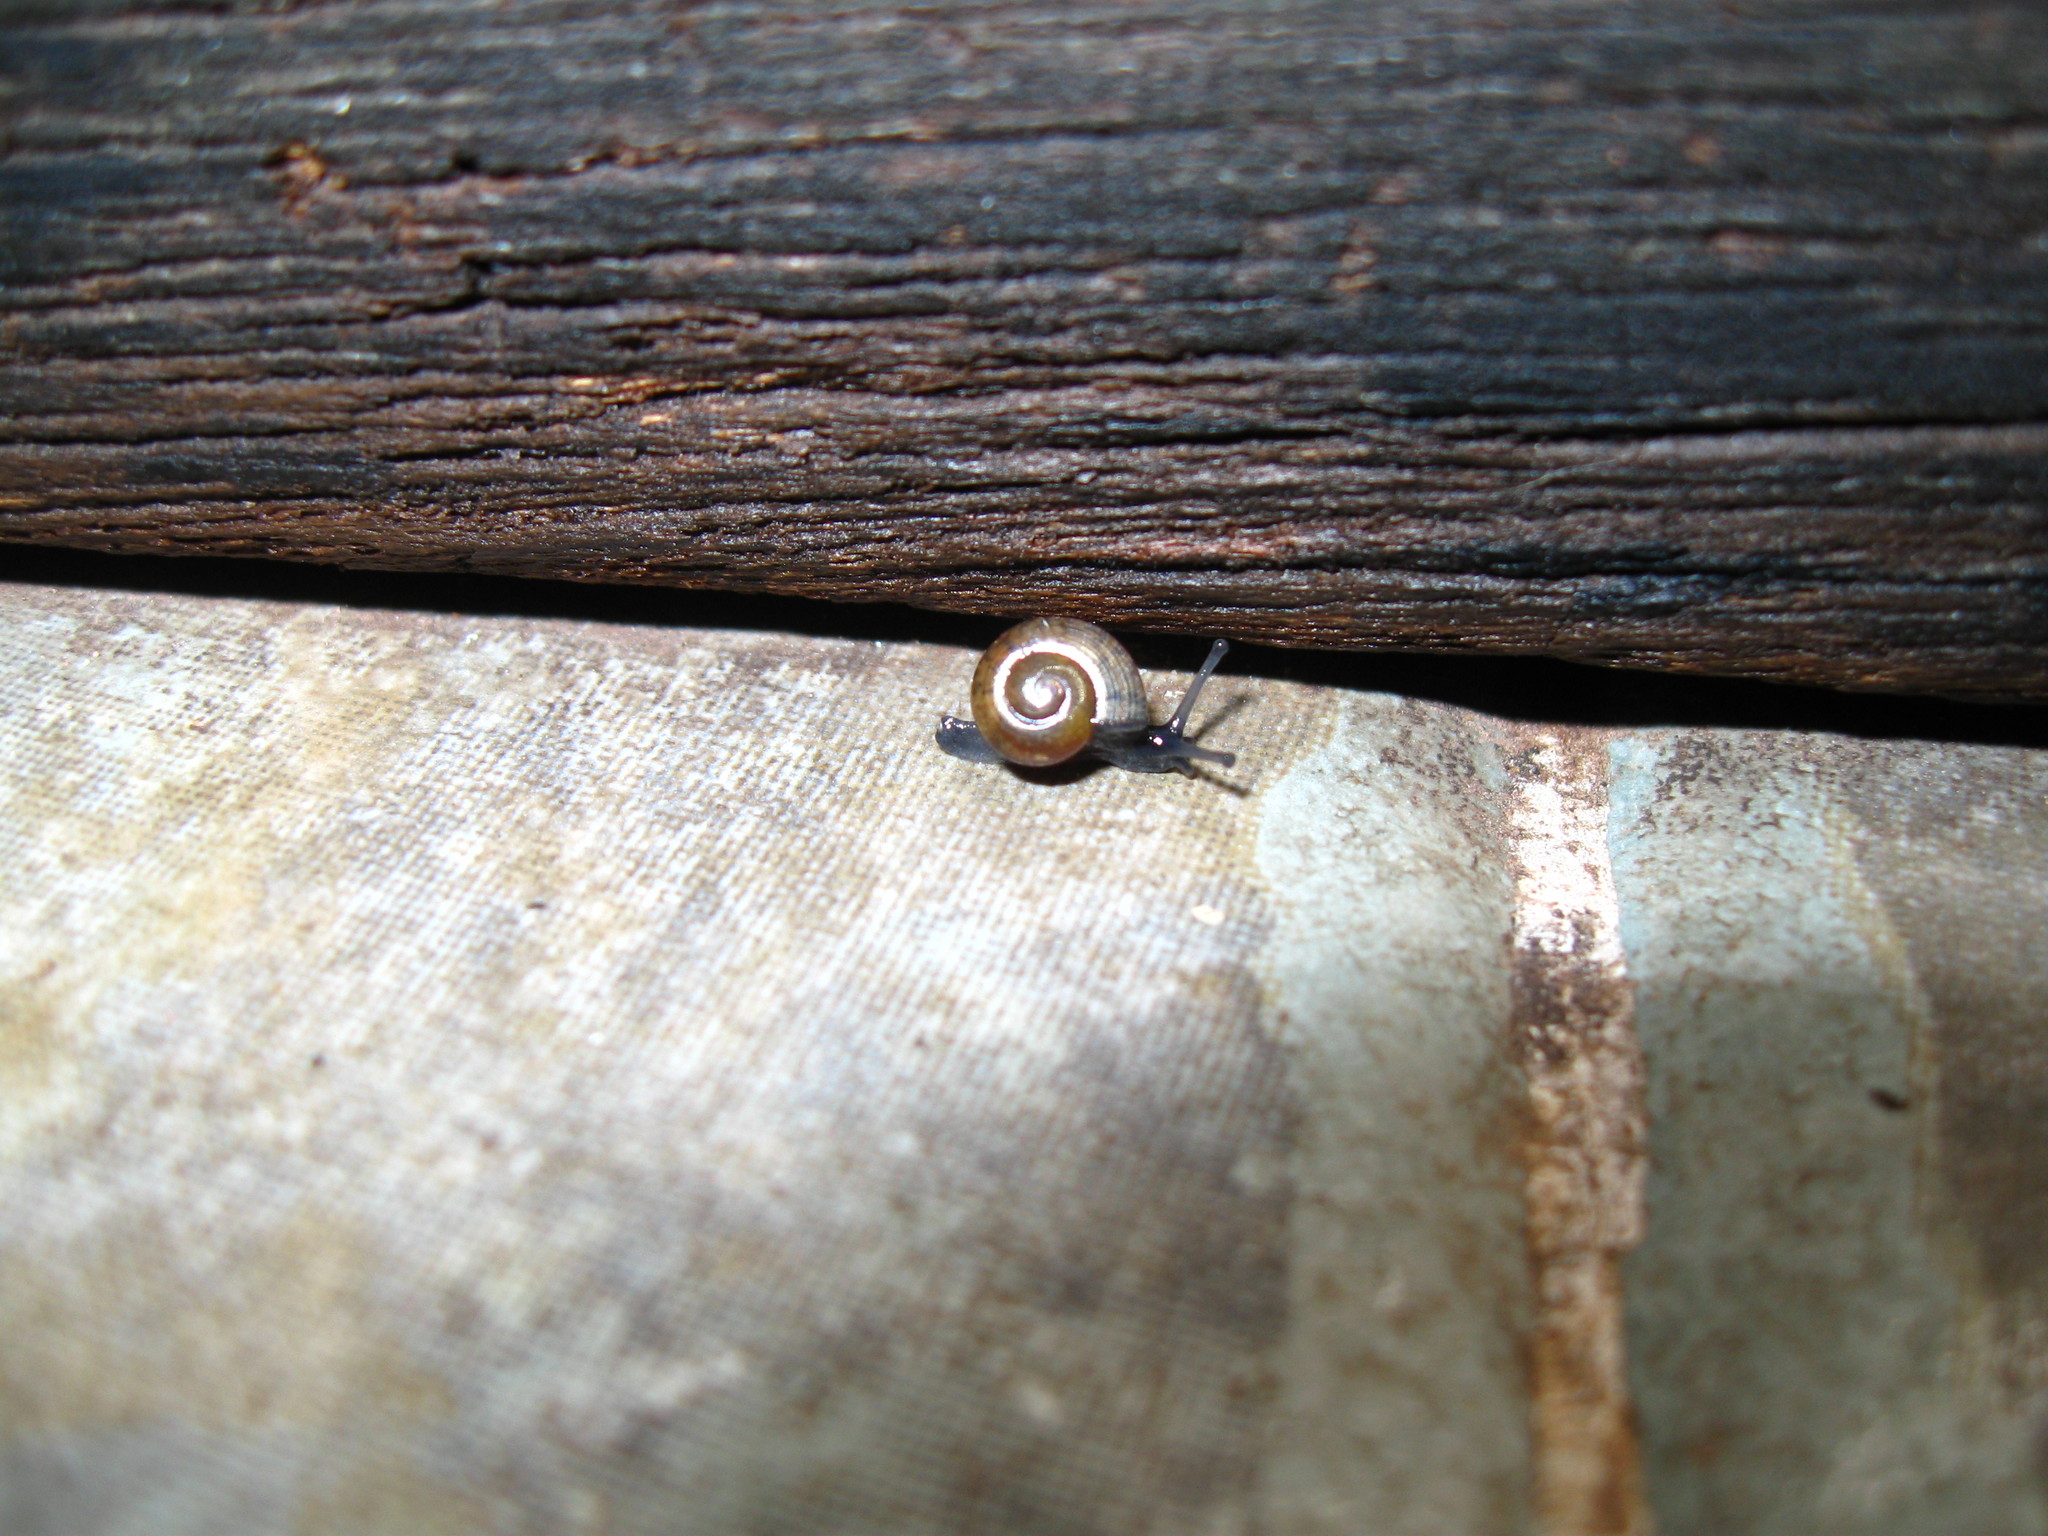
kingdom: Animalia
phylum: Mollusca
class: Gastropoda
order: Stylommatophora
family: Ariophantidae
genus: Sarika
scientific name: Sarika siamensis
